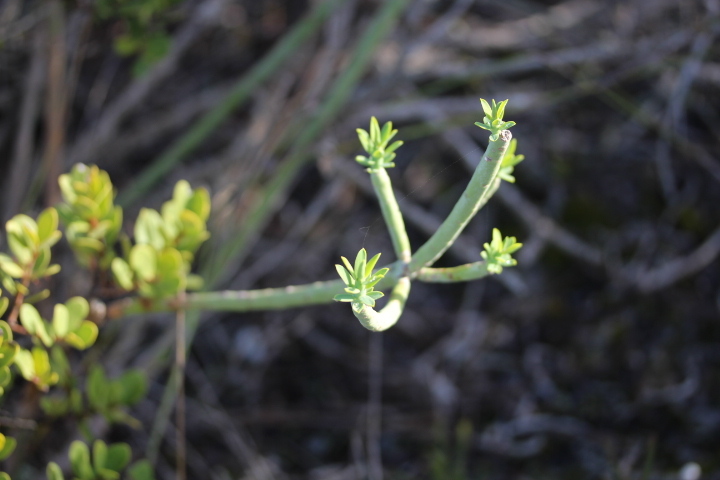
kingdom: Plantae
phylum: Tracheophyta
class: Magnoliopsida
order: Malpighiales
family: Euphorbiaceae
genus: Euphorbia
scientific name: Euphorbia mauritanica
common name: Jackal's-food
